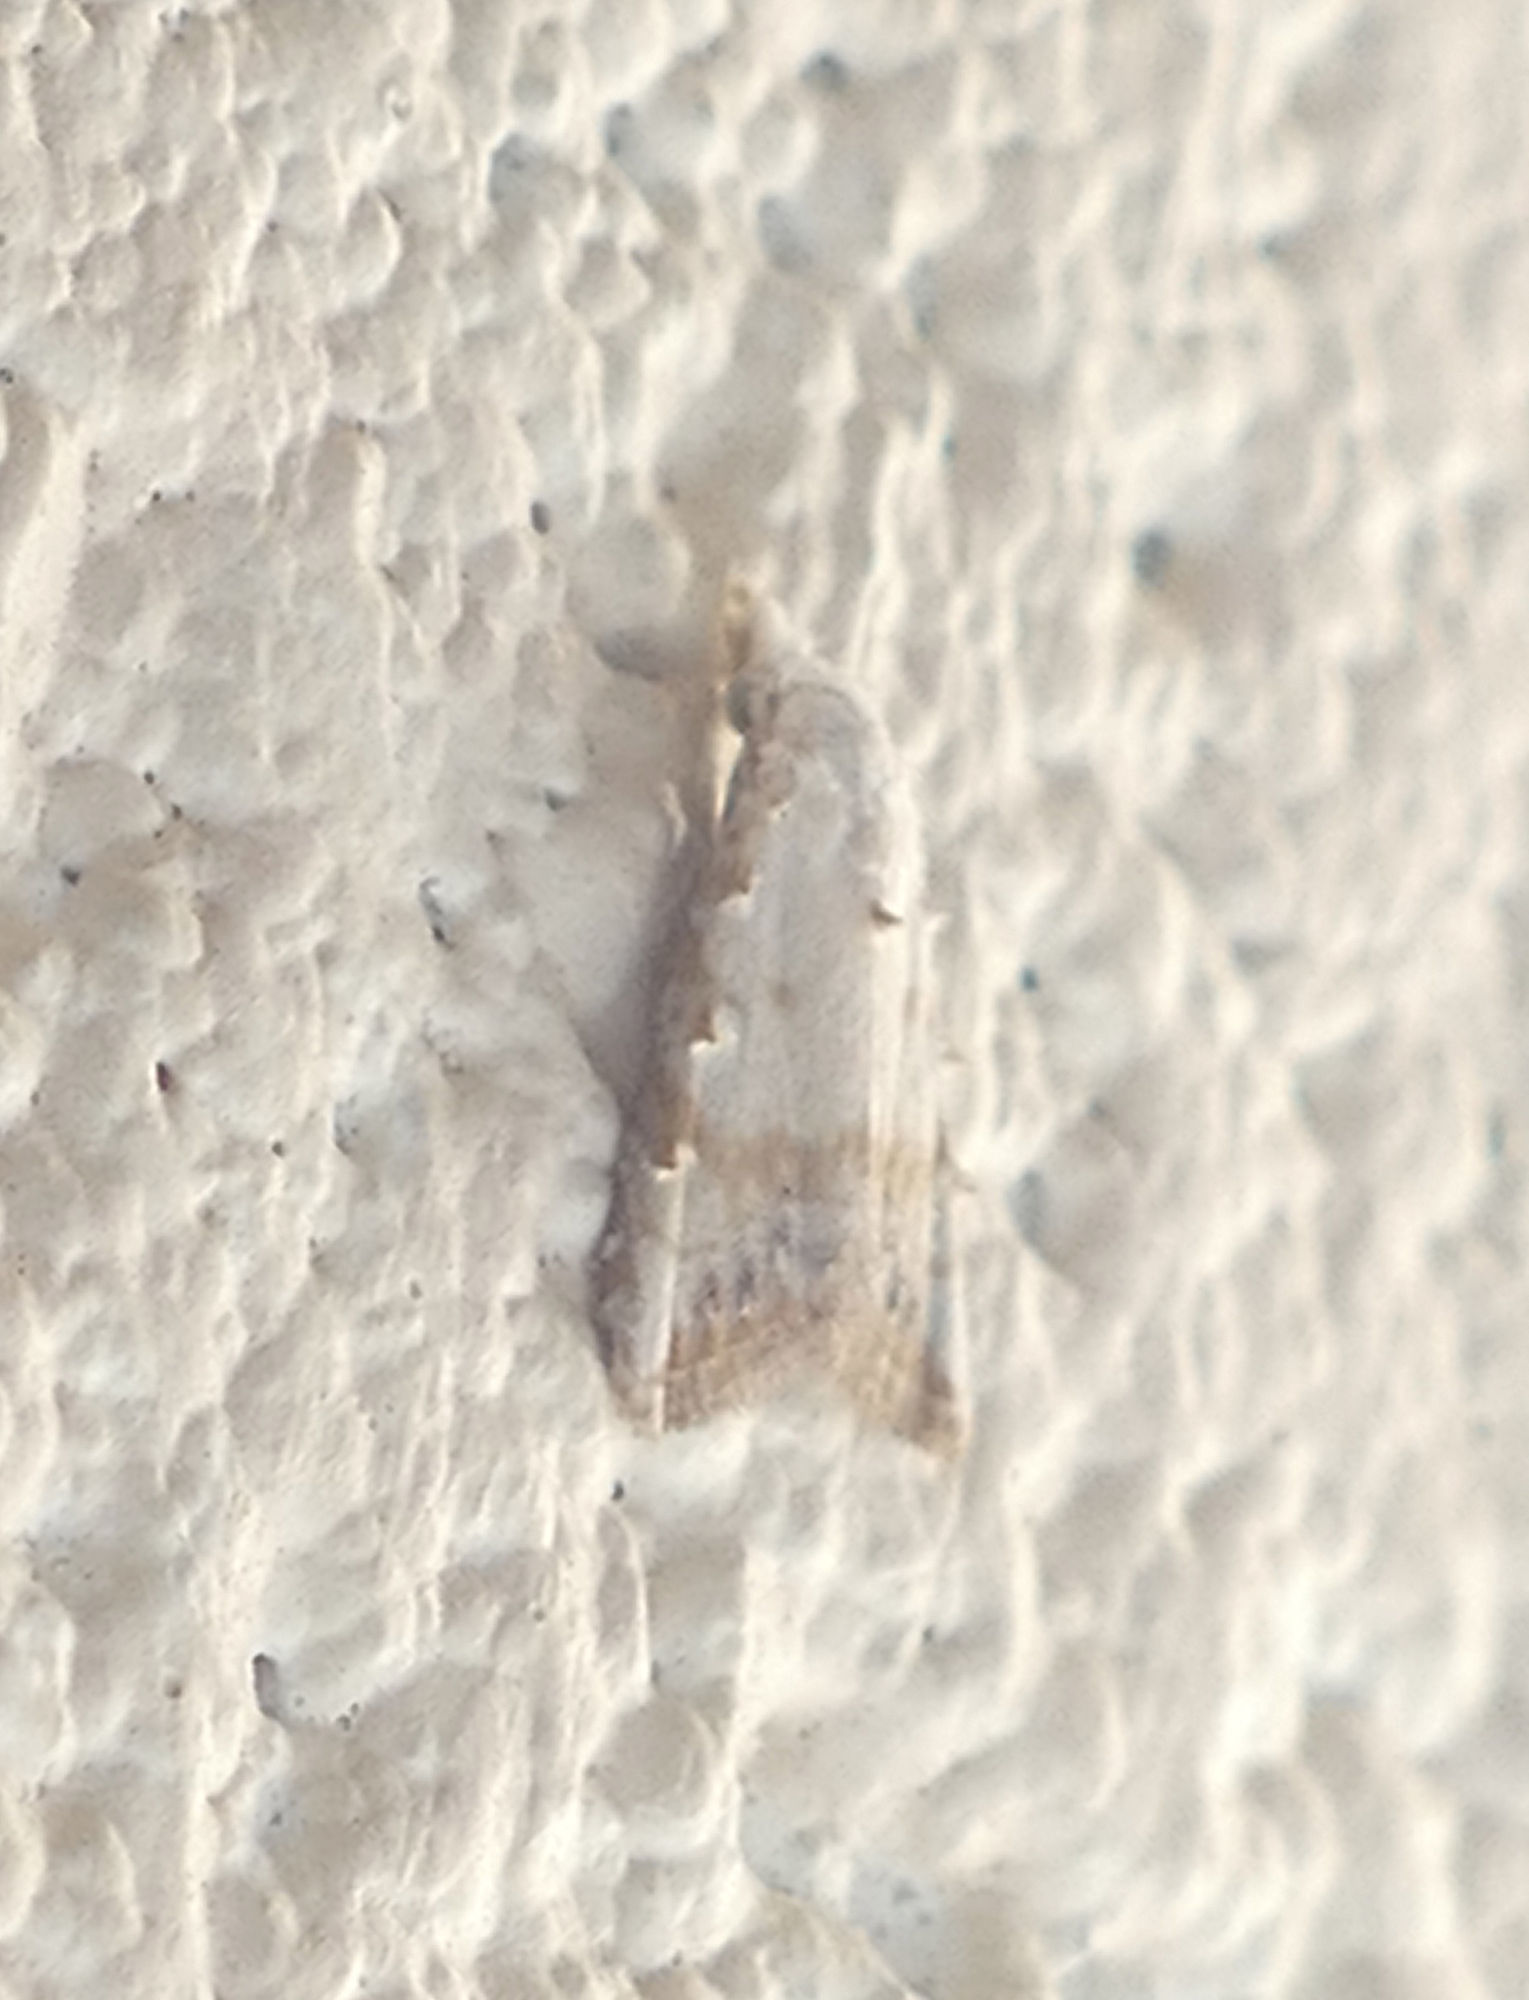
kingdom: Animalia
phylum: Arthropoda
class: Insecta
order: Lepidoptera
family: Nolidae
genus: Nola
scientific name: Nola cereella
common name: Sorghum webworm moth
